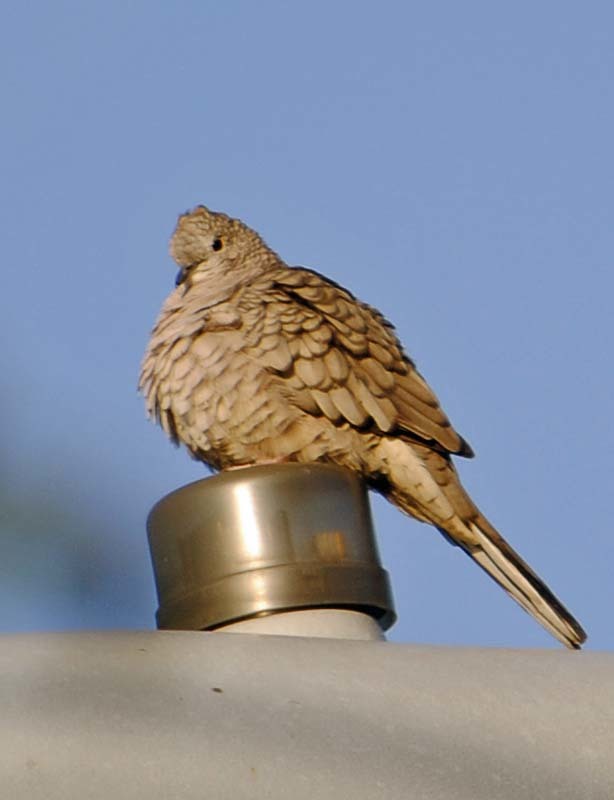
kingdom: Animalia
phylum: Chordata
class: Aves
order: Columbiformes
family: Columbidae
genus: Columbina
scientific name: Columbina inca
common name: Inca dove
